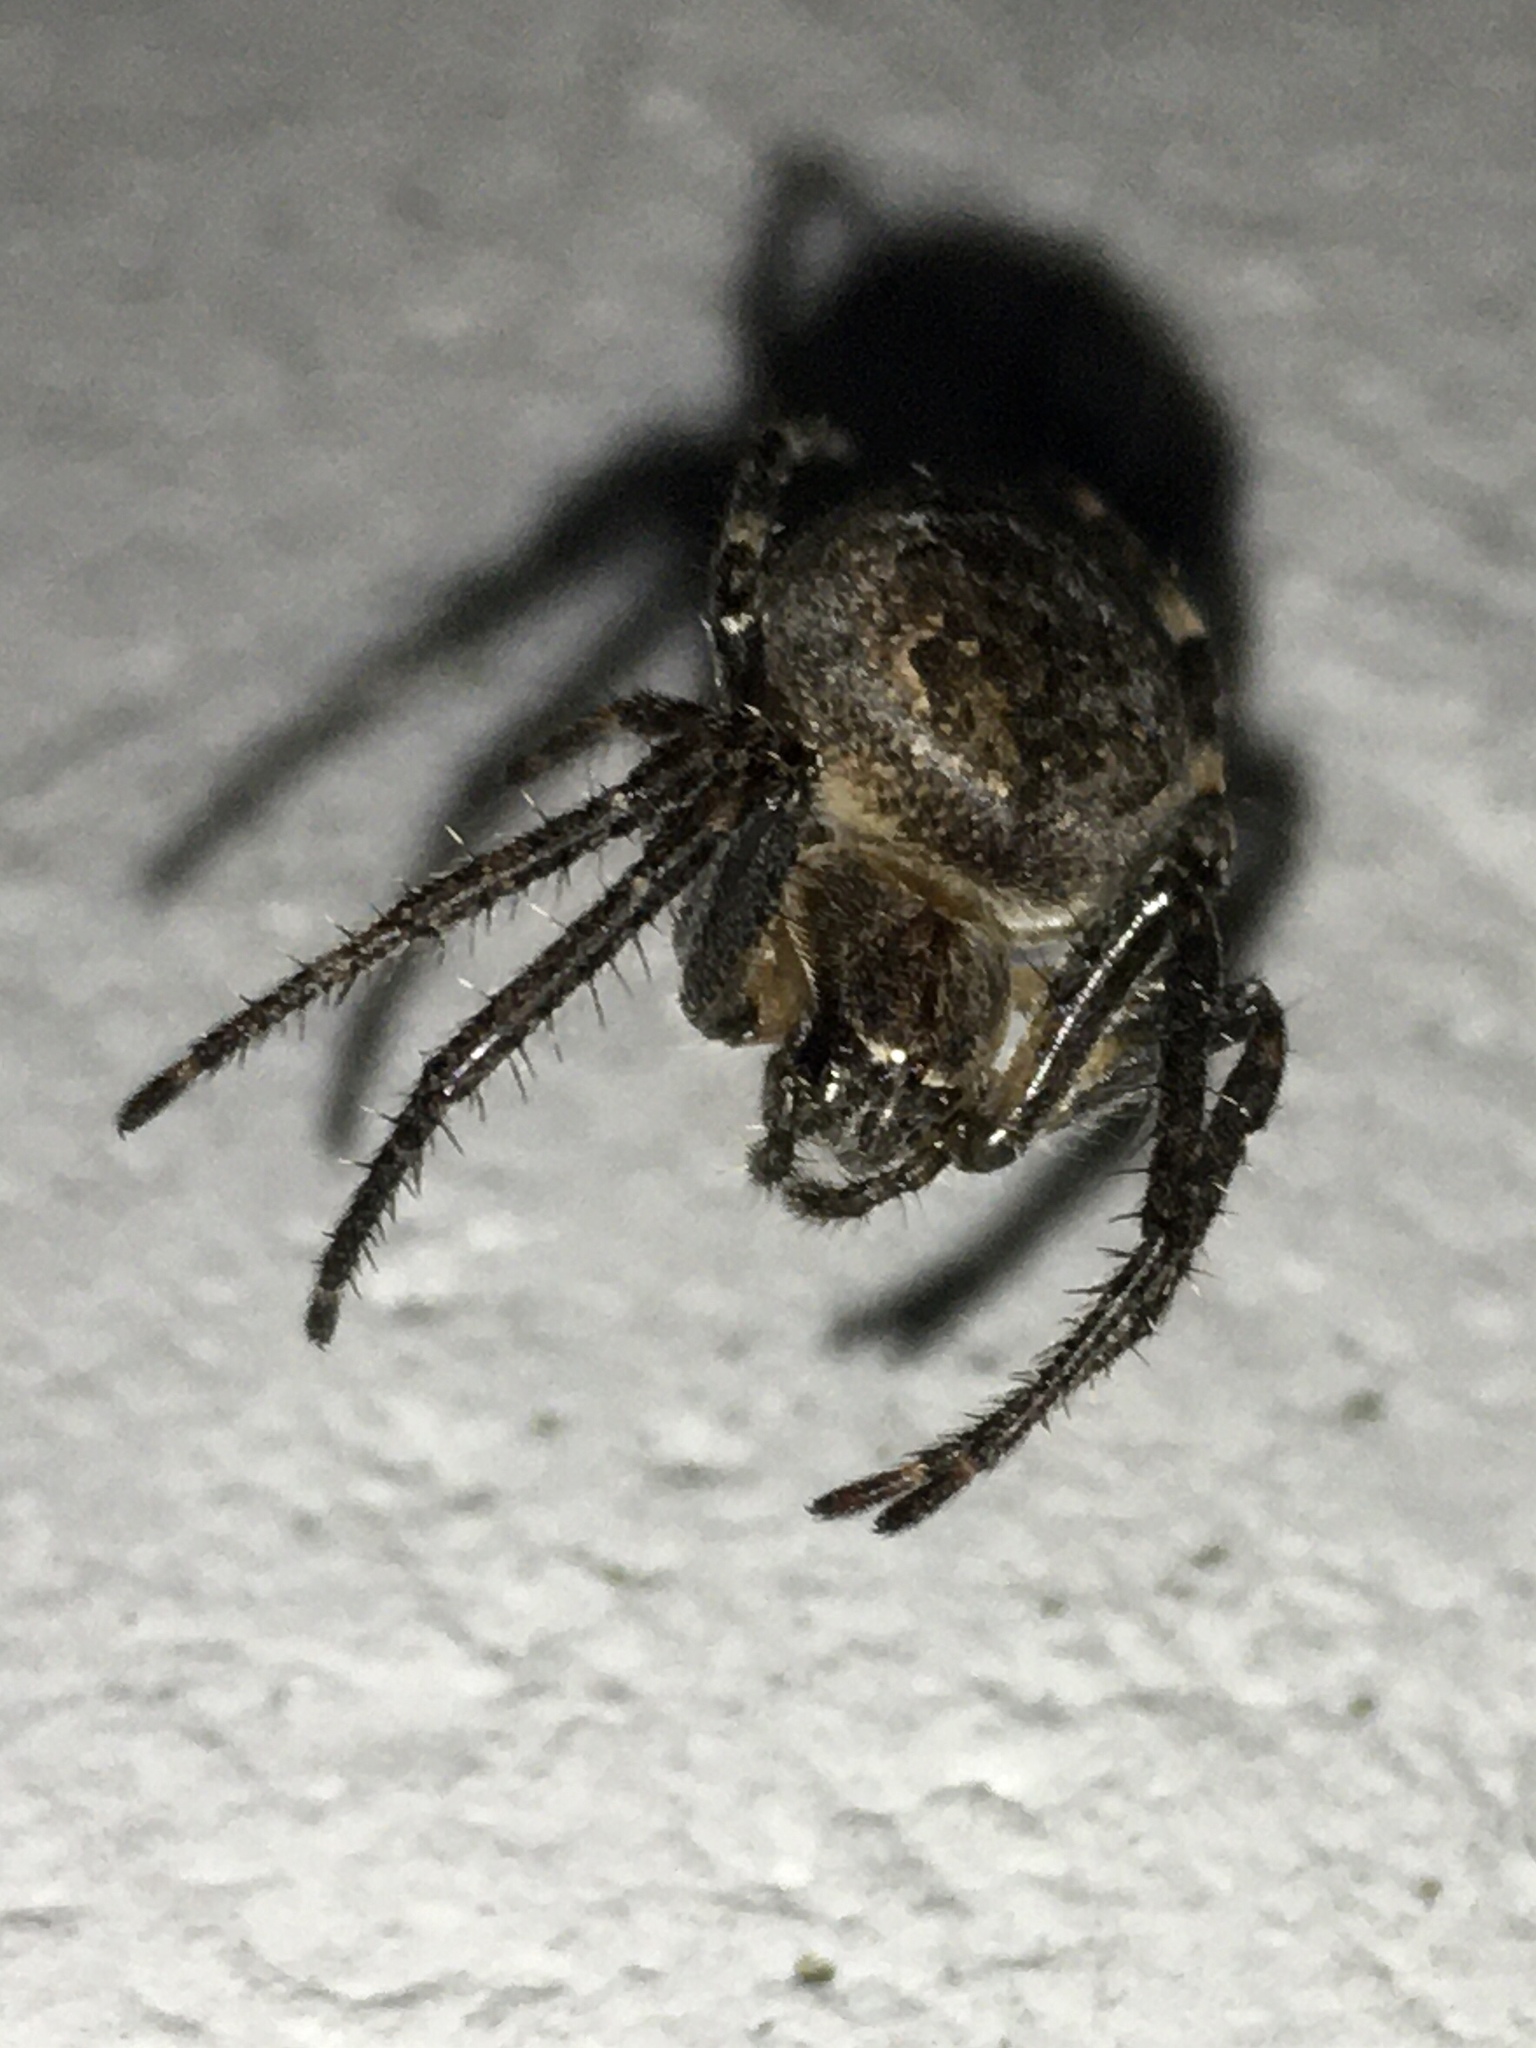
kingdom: Animalia
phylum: Arthropoda
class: Arachnida
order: Araneae
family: Araneidae
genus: Nuctenea
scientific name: Nuctenea umbratica
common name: Toad spider
